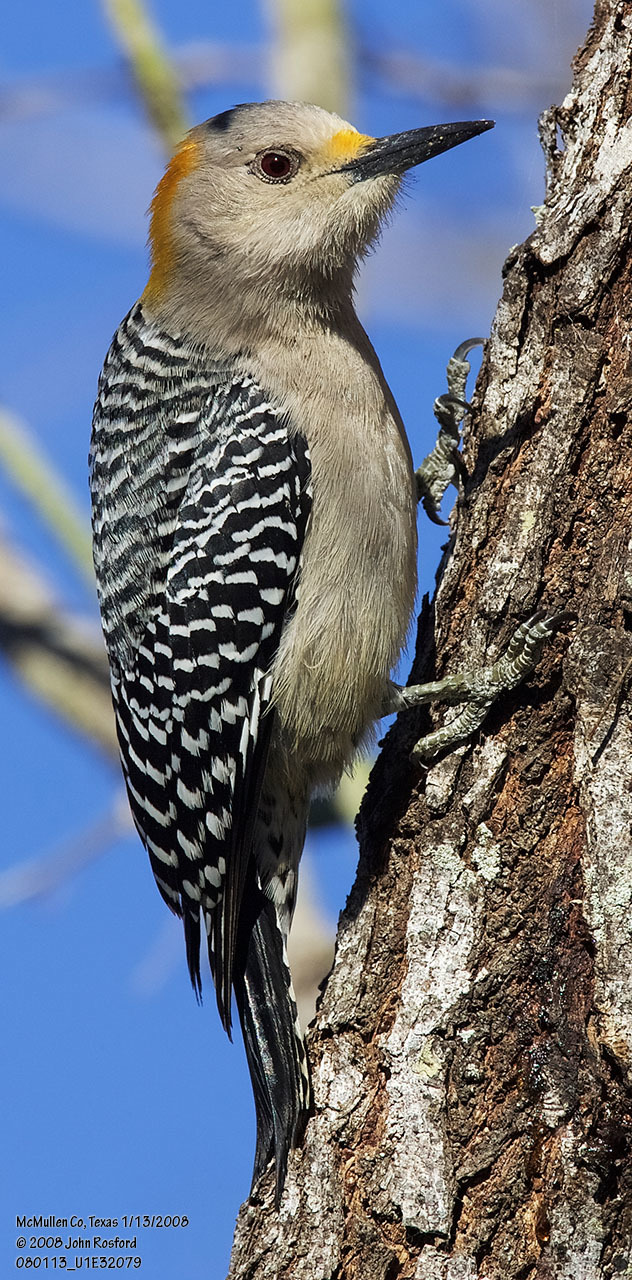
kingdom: Animalia
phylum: Chordata
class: Aves
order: Piciformes
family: Picidae
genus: Melanerpes
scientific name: Melanerpes aurifrons
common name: Golden-fronted woodpecker
